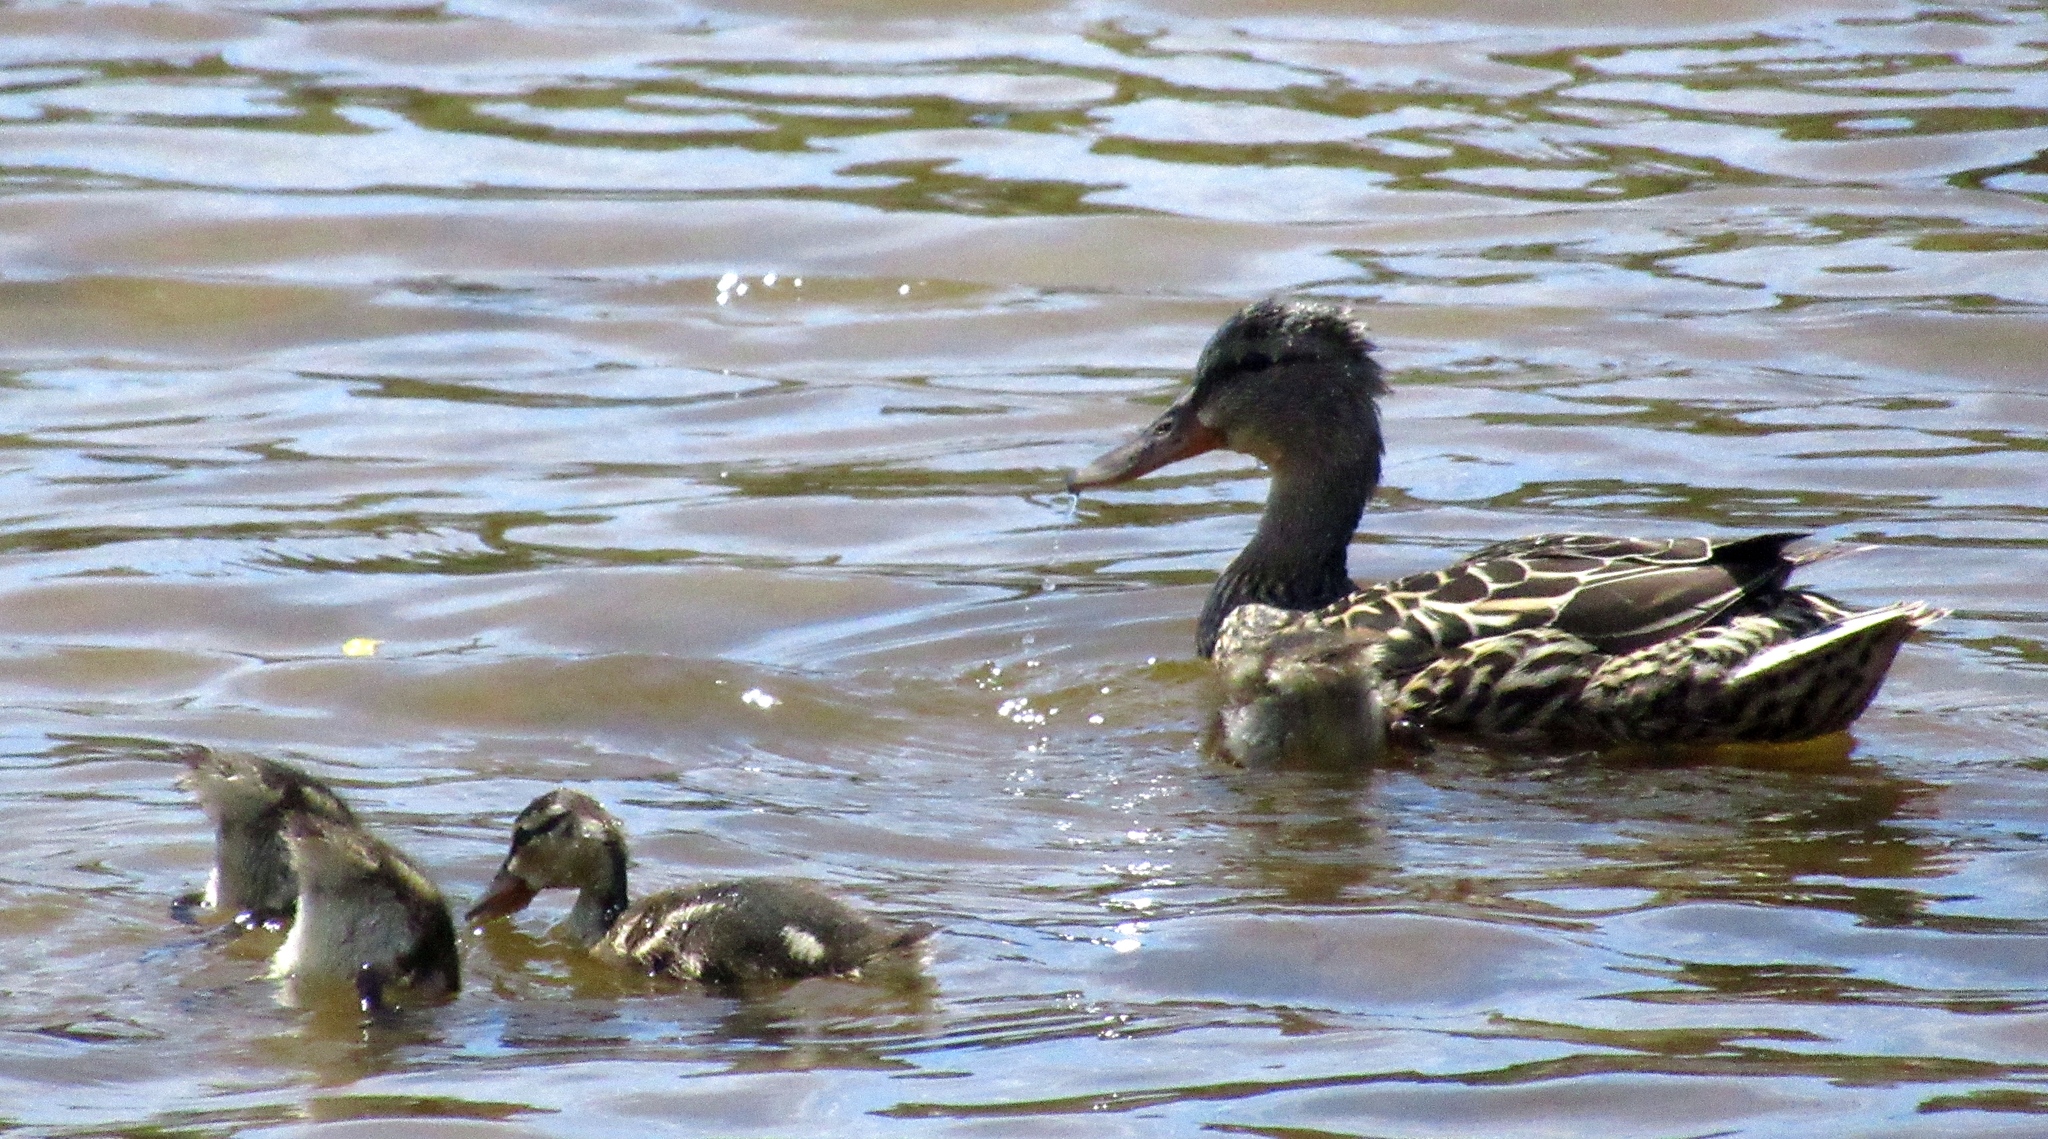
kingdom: Animalia
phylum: Chordata
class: Aves
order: Anseriformes
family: Anatidae
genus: Anas
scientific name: Anas platyrhynchos
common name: Mallard
